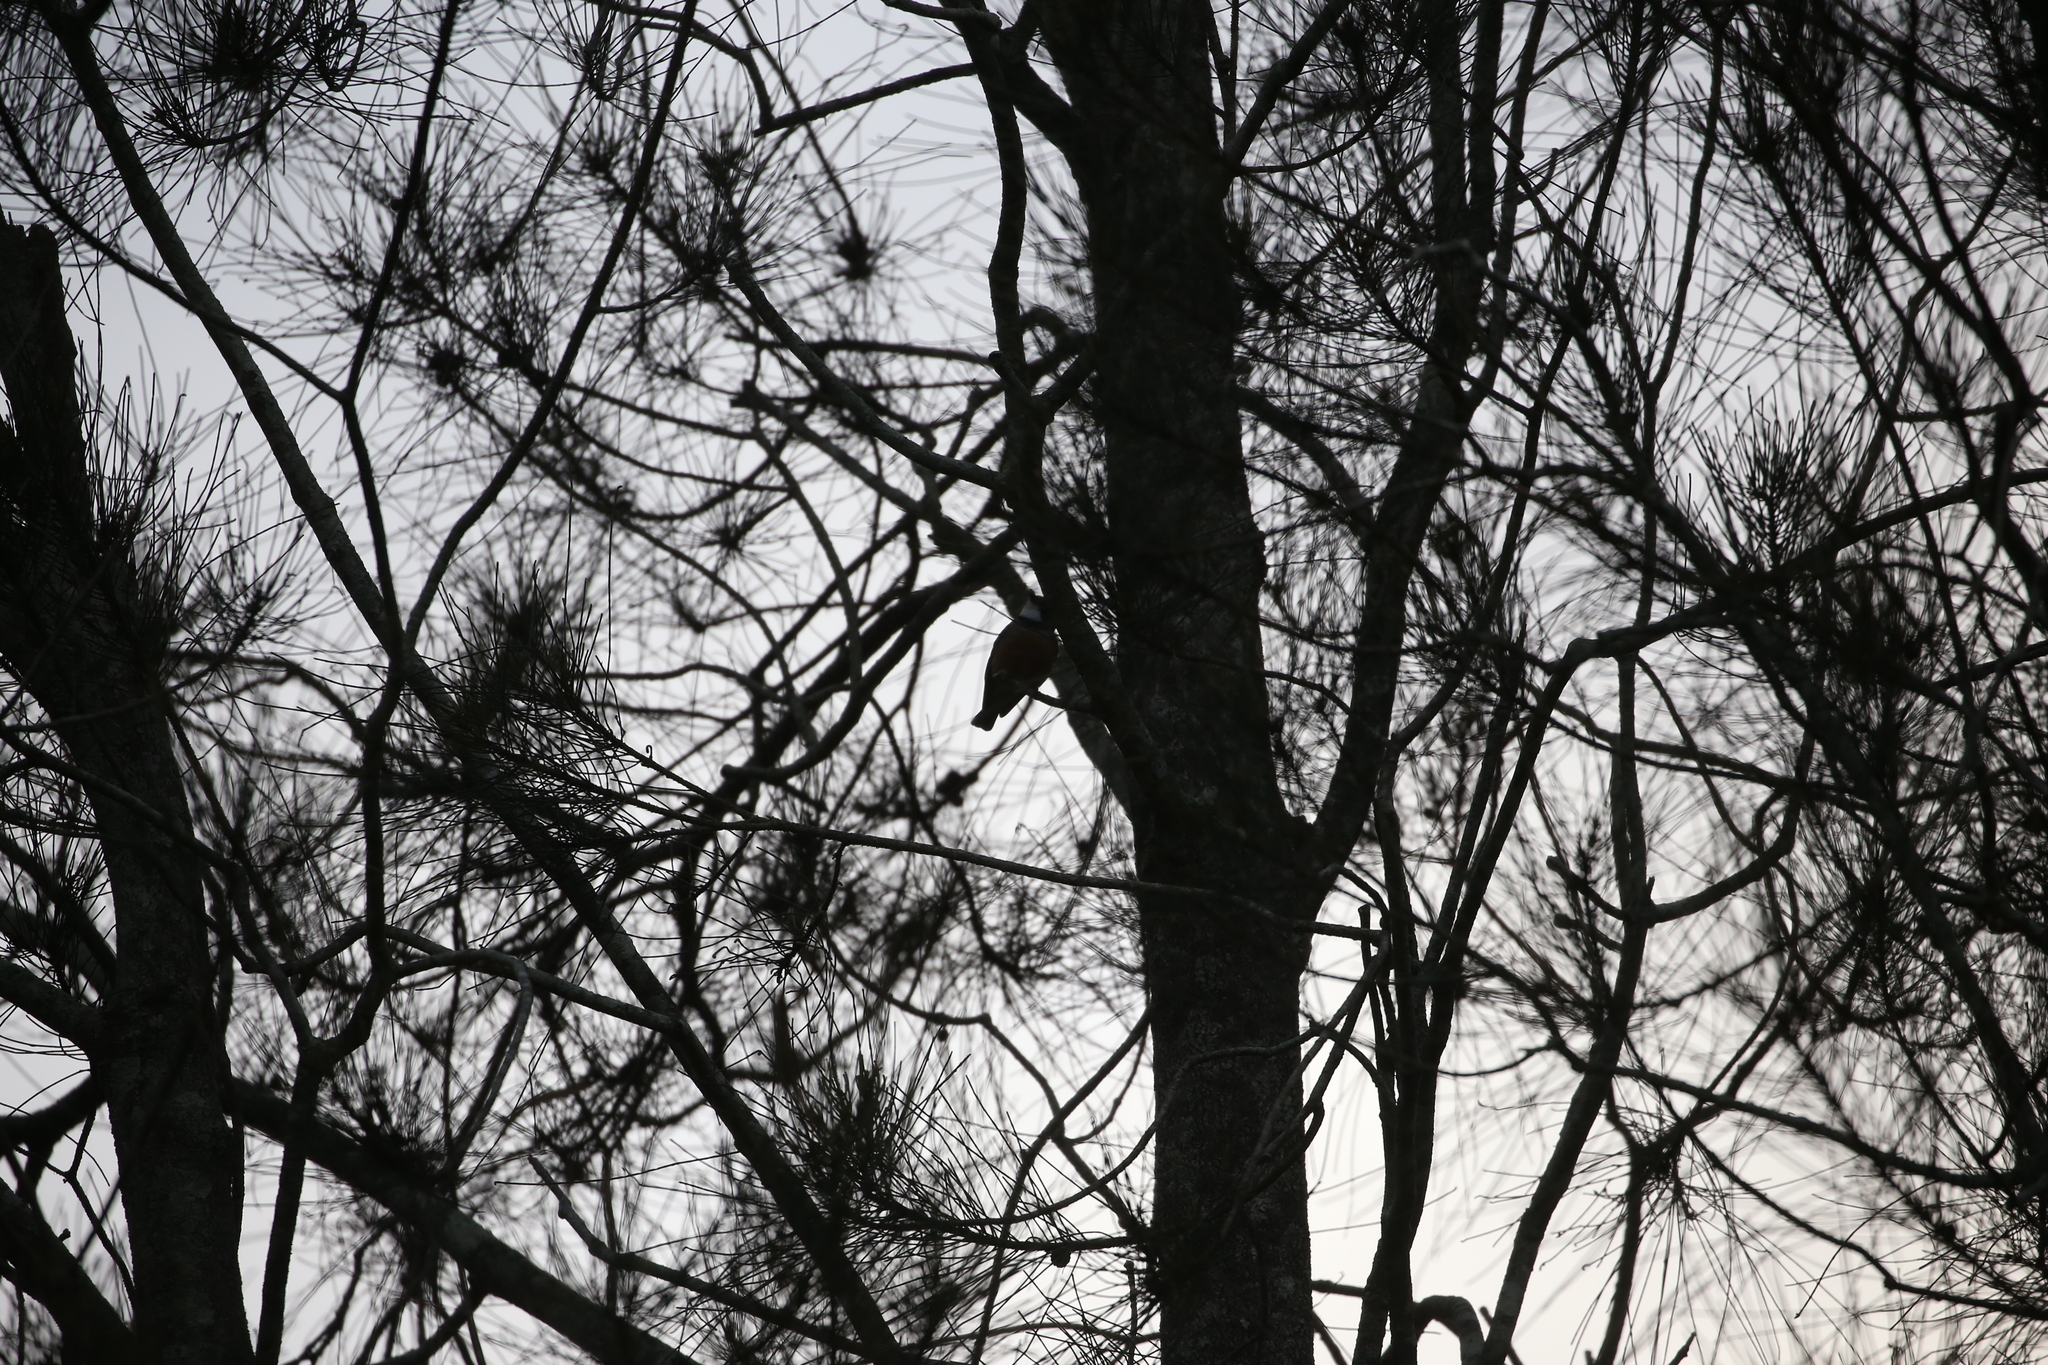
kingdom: Animalia
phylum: Chordata
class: Aves
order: Passeriformes
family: Pachycephalidae
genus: Pachycephala
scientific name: Pachycephala rufiventris
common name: Rufous whistler
